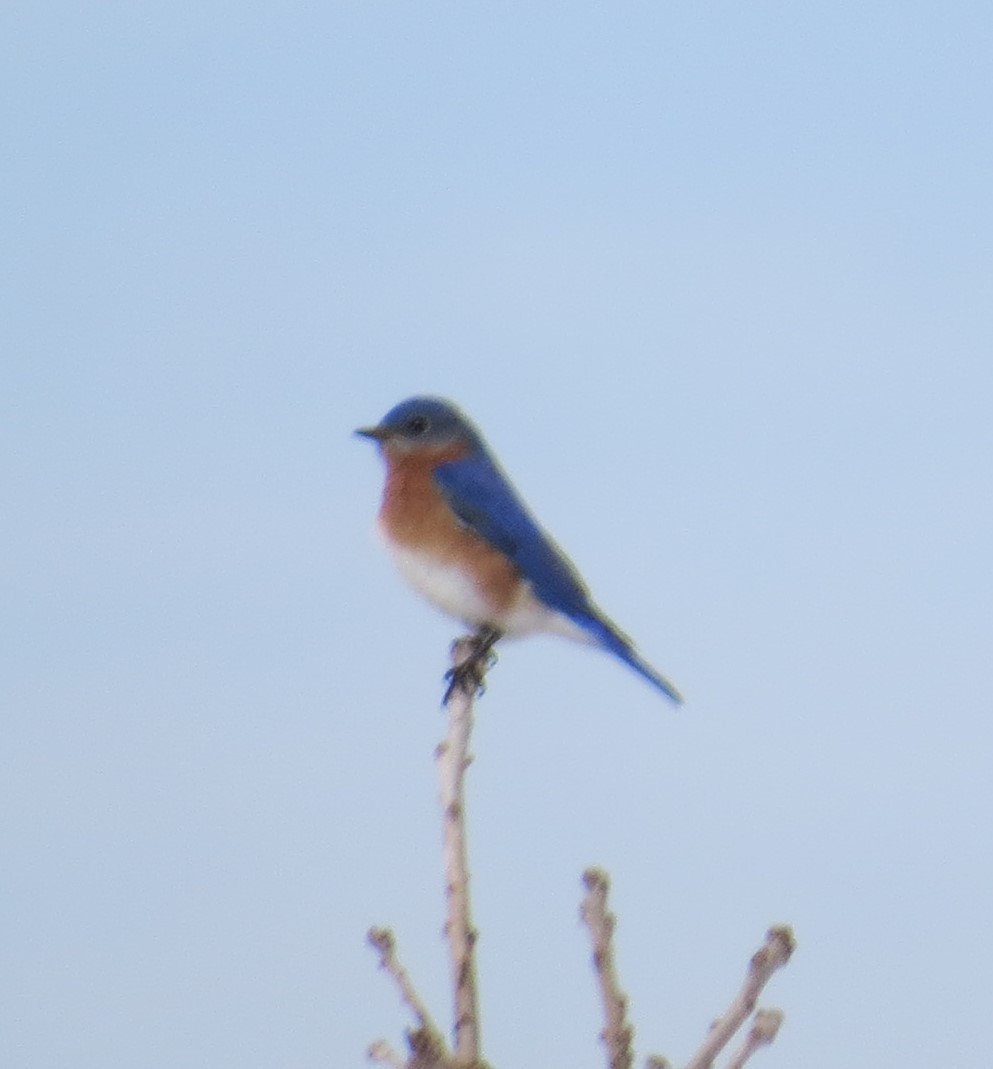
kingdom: Animalia
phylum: Chordata
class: Aves
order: Passeriformes
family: Turdidae
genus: Sialia
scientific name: Sialia sialis
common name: Eastern bluebird
